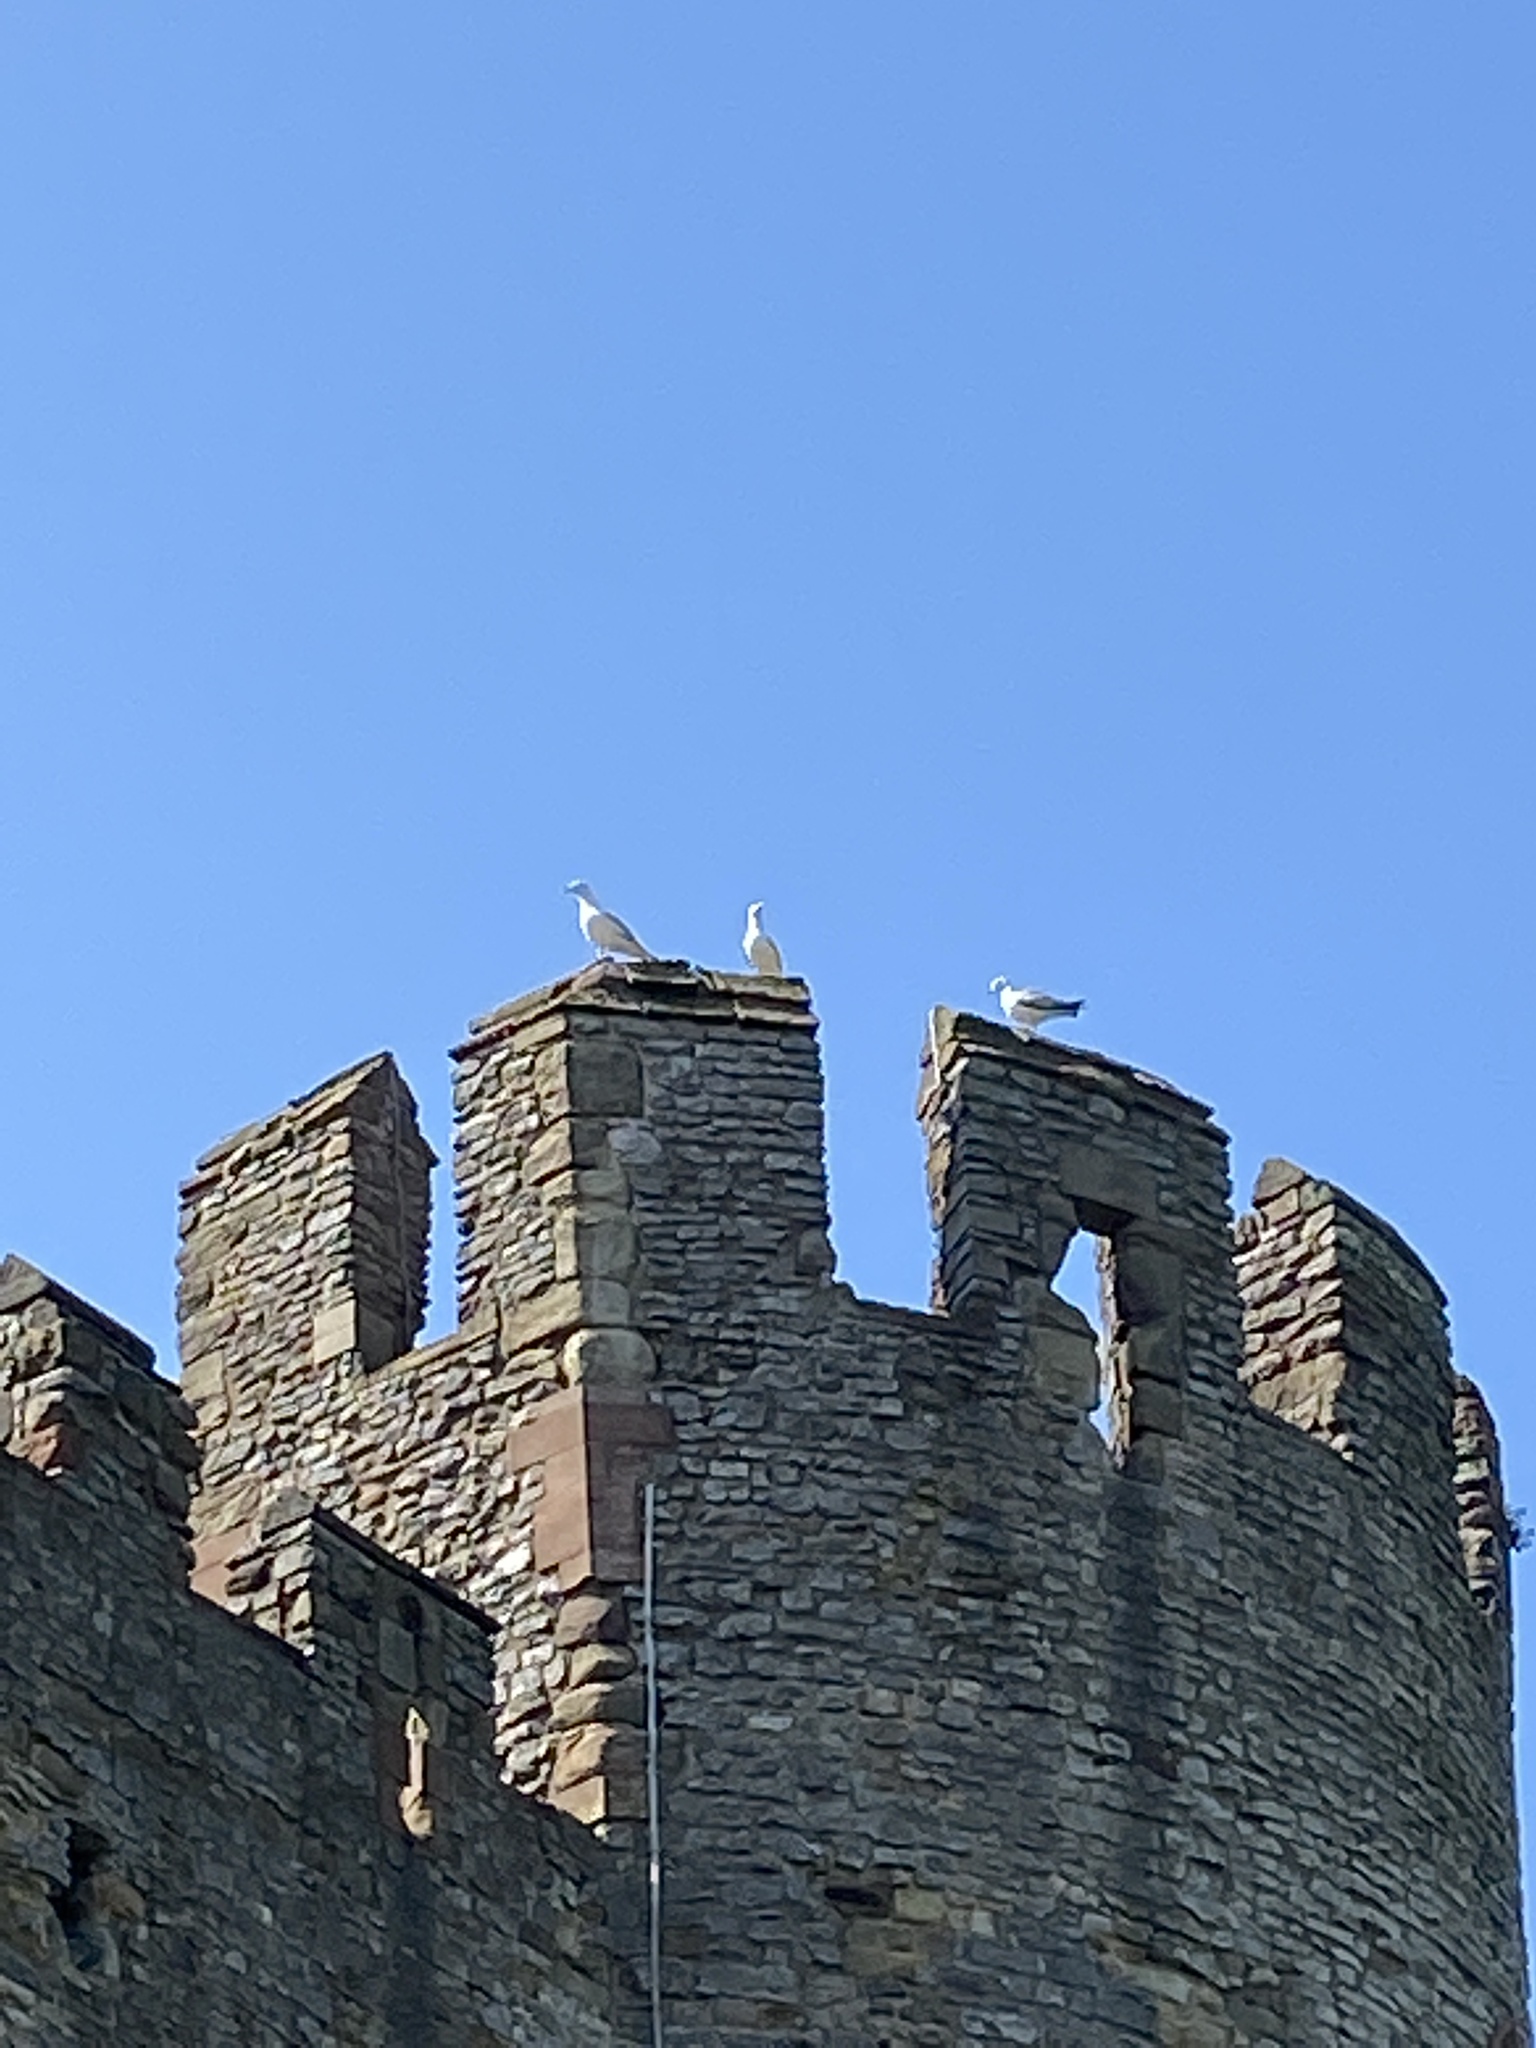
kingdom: Animalia
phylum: Chordata
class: Aves
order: Charadriiformes
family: Laridae
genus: Larus
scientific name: Larus argentatus
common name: Herring gull
